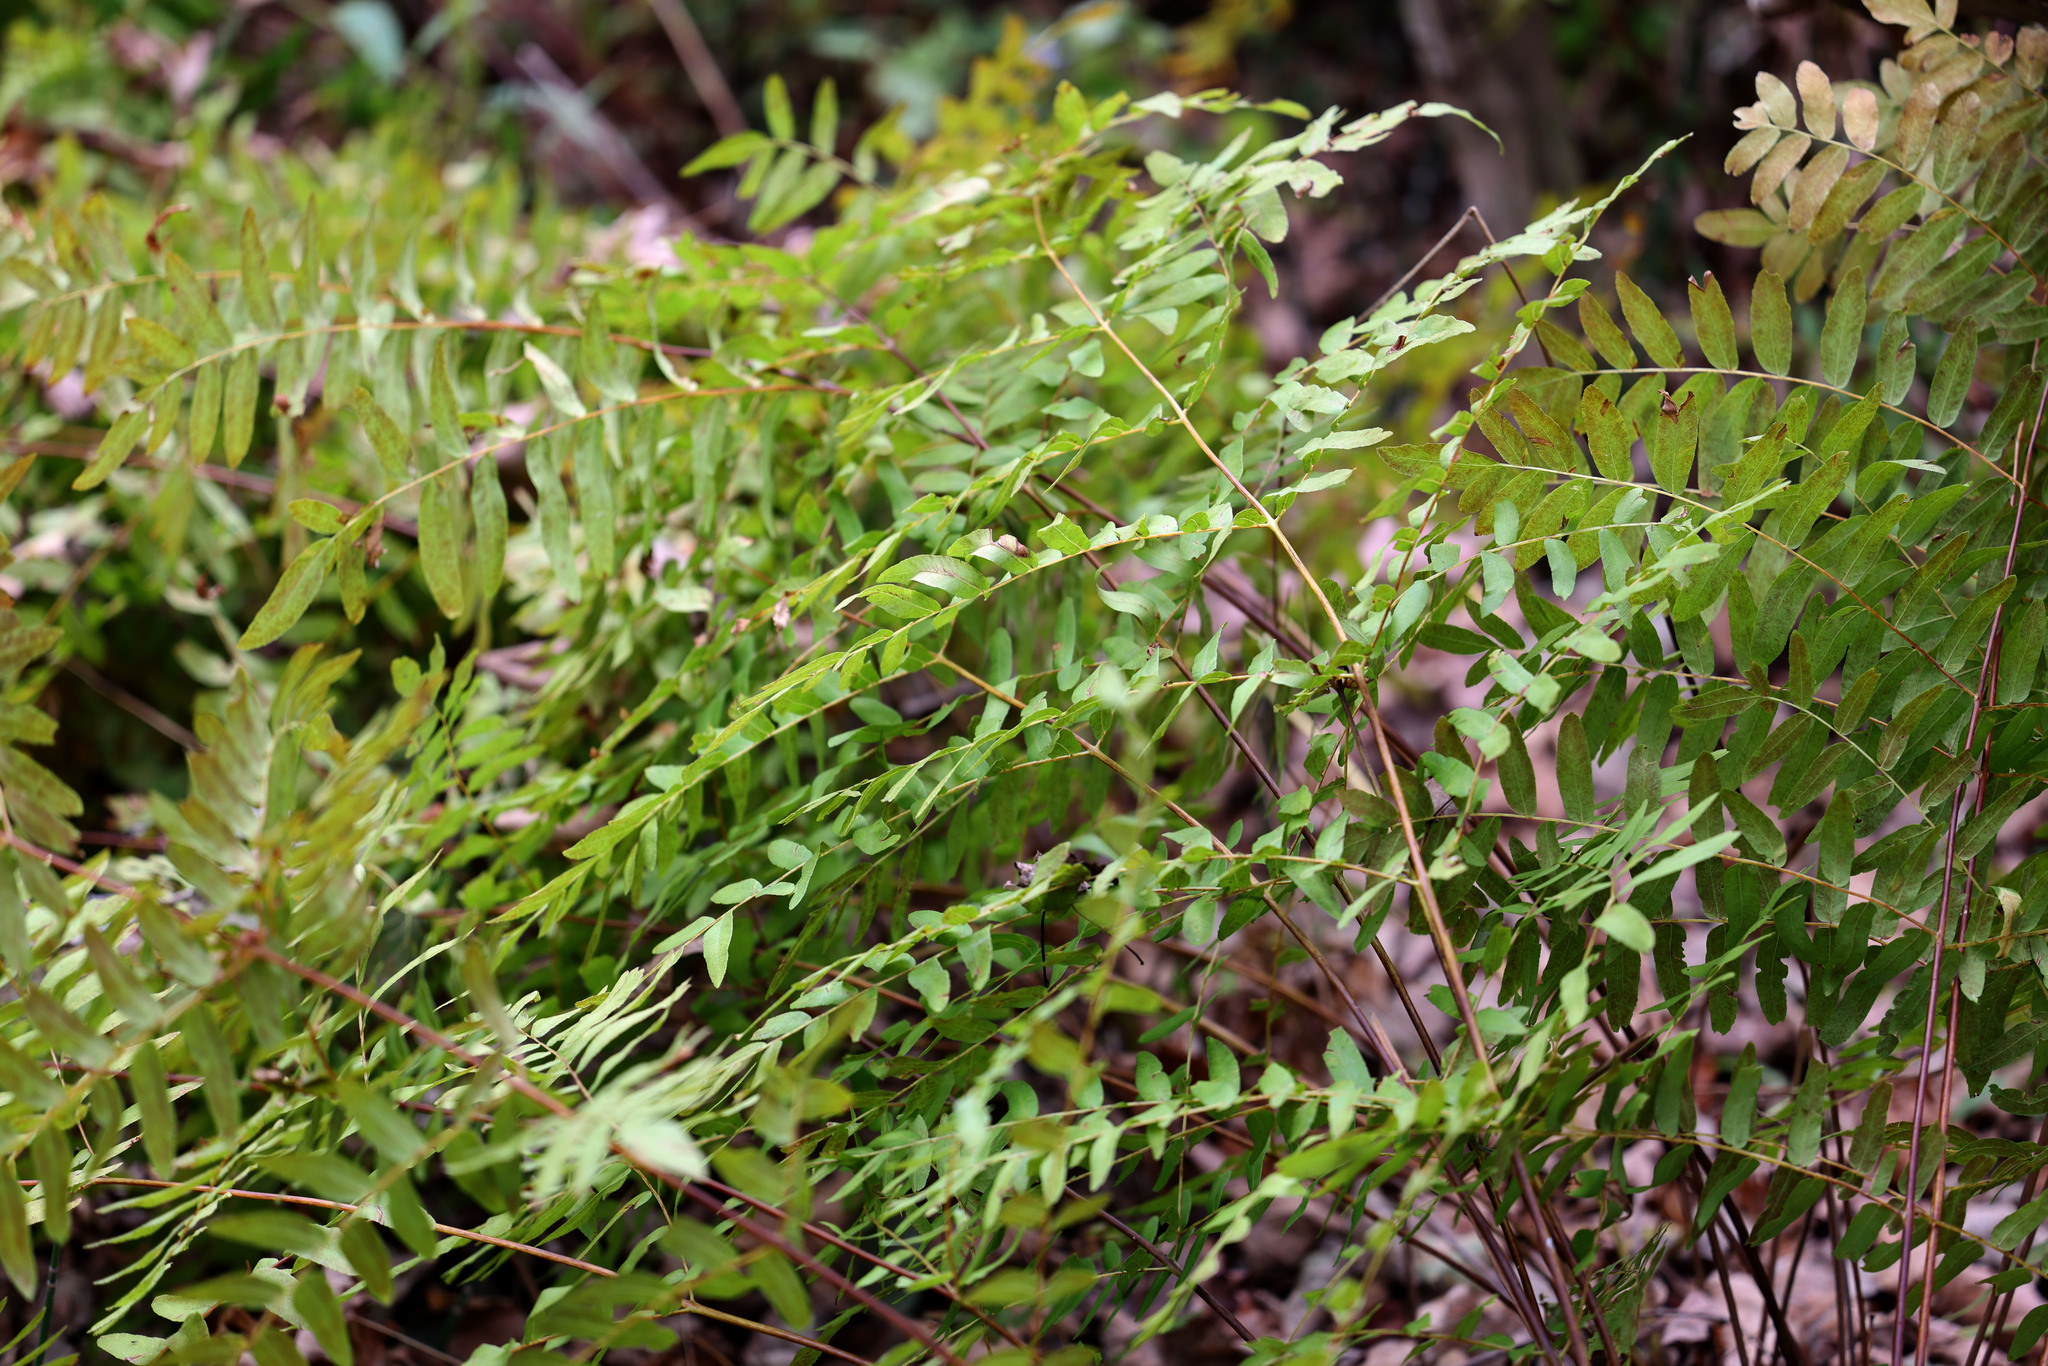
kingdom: Plantae
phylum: Tracheophyta
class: Polypodiopsida
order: Osmundales
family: Osmundaceae
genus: Osmunda
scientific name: Osmunda spectabilis
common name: American royal fern
